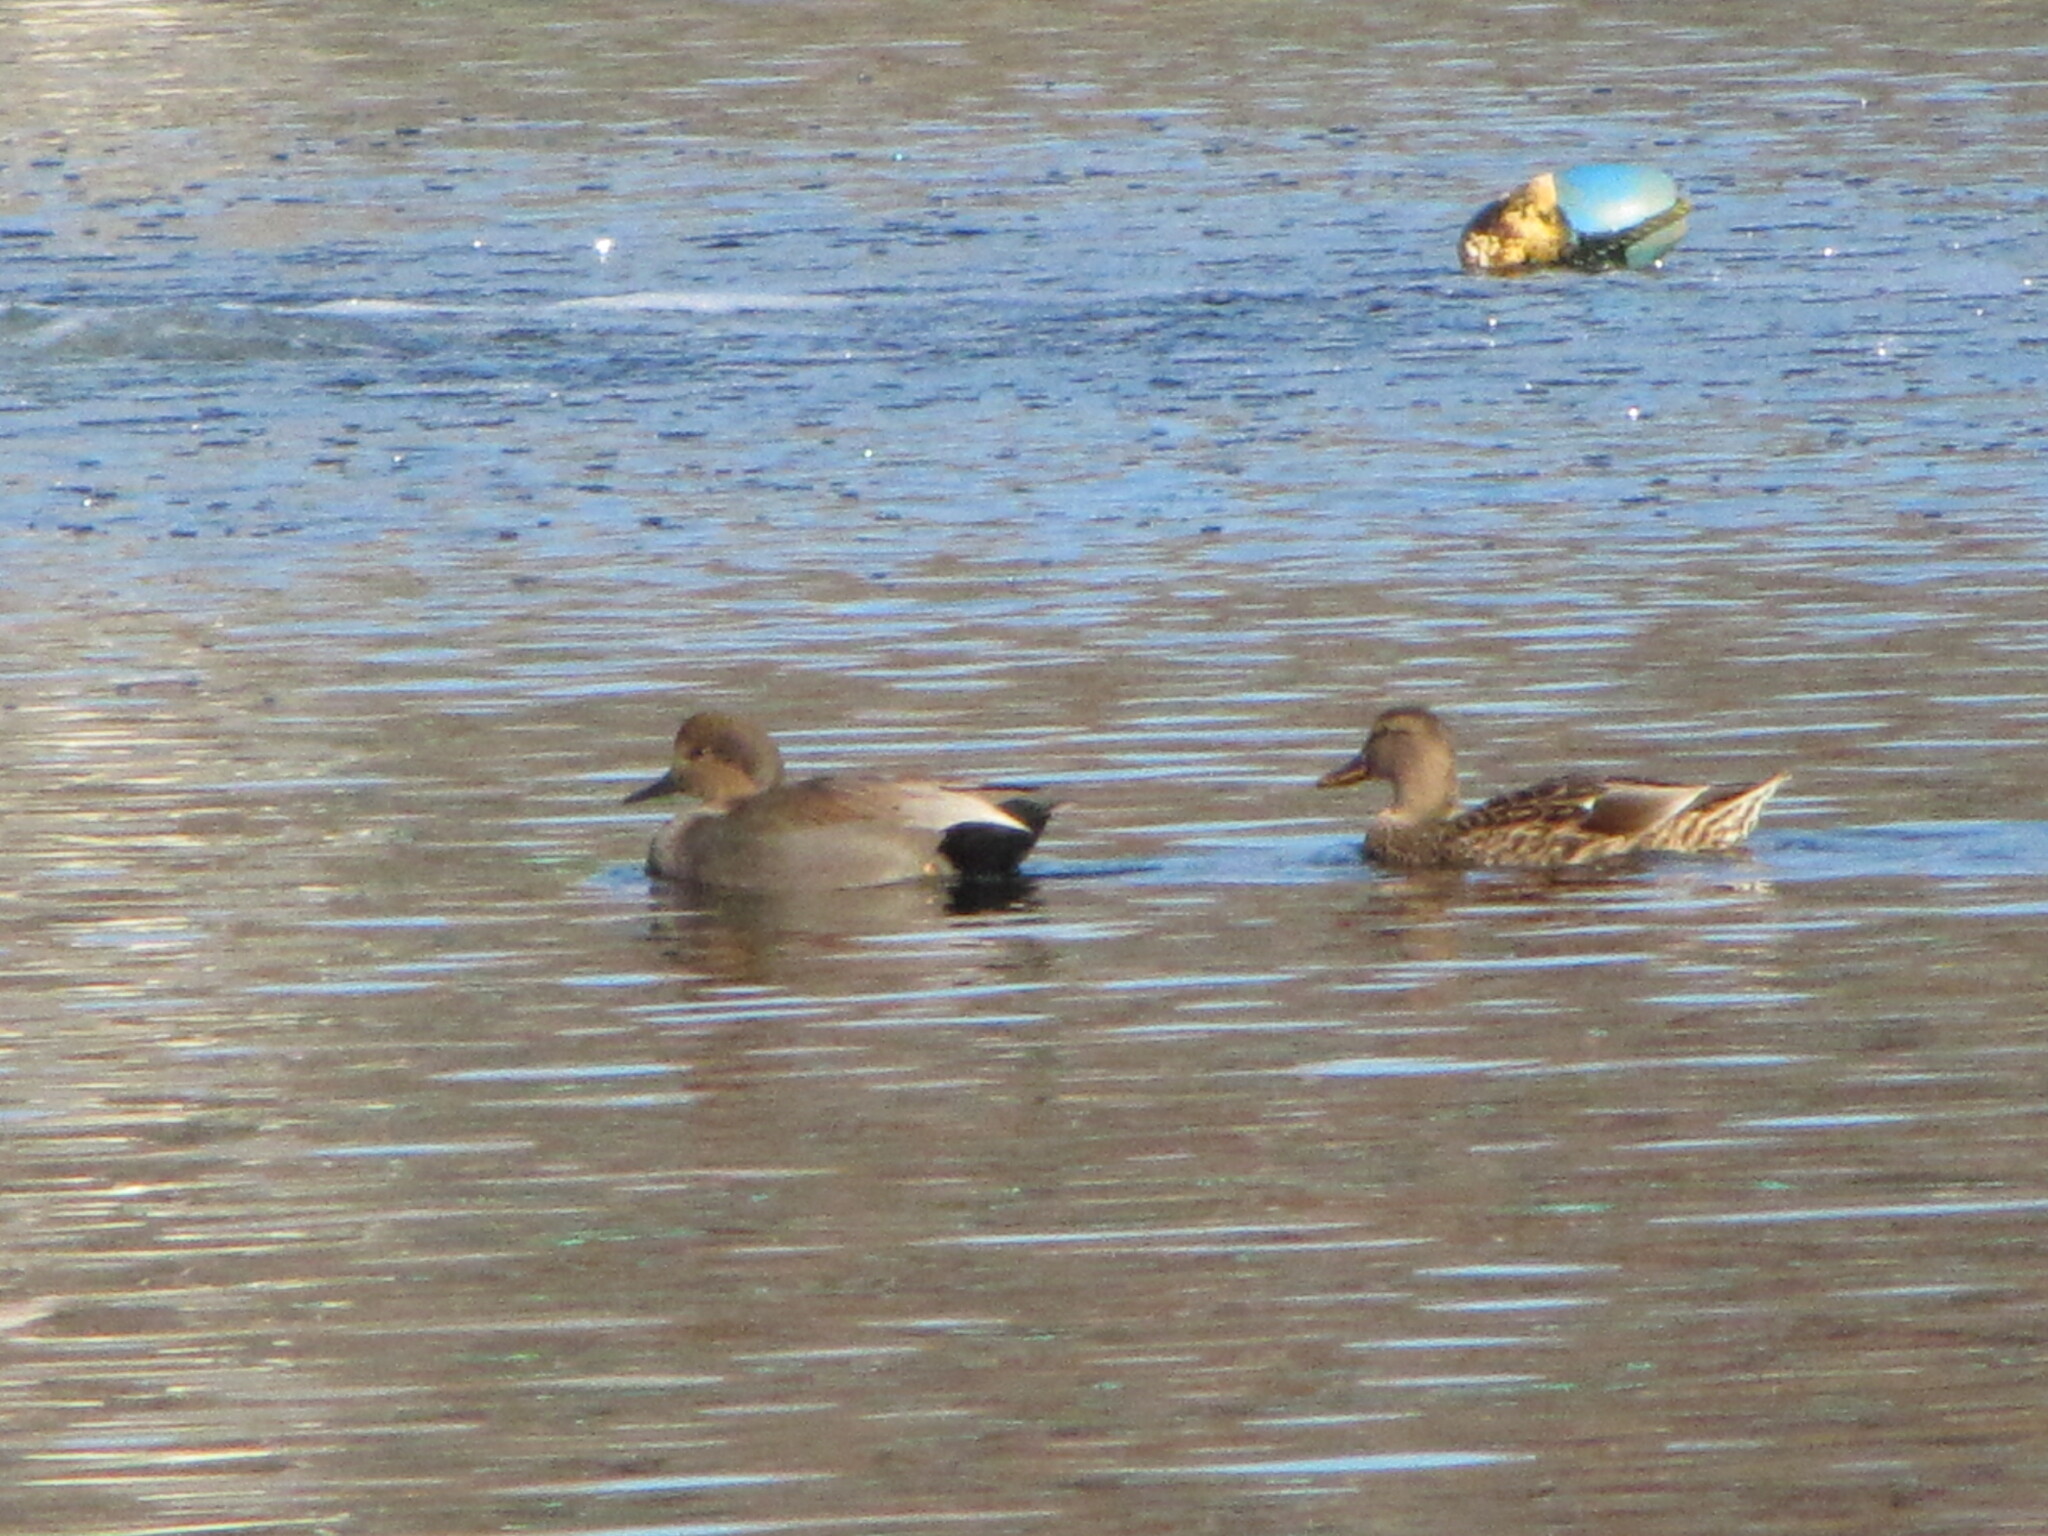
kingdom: Animalia
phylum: Chordata
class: Aves
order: Anseriformes
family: Anatidae
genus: Mareca
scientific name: Mareca strepera
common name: Gadwall
